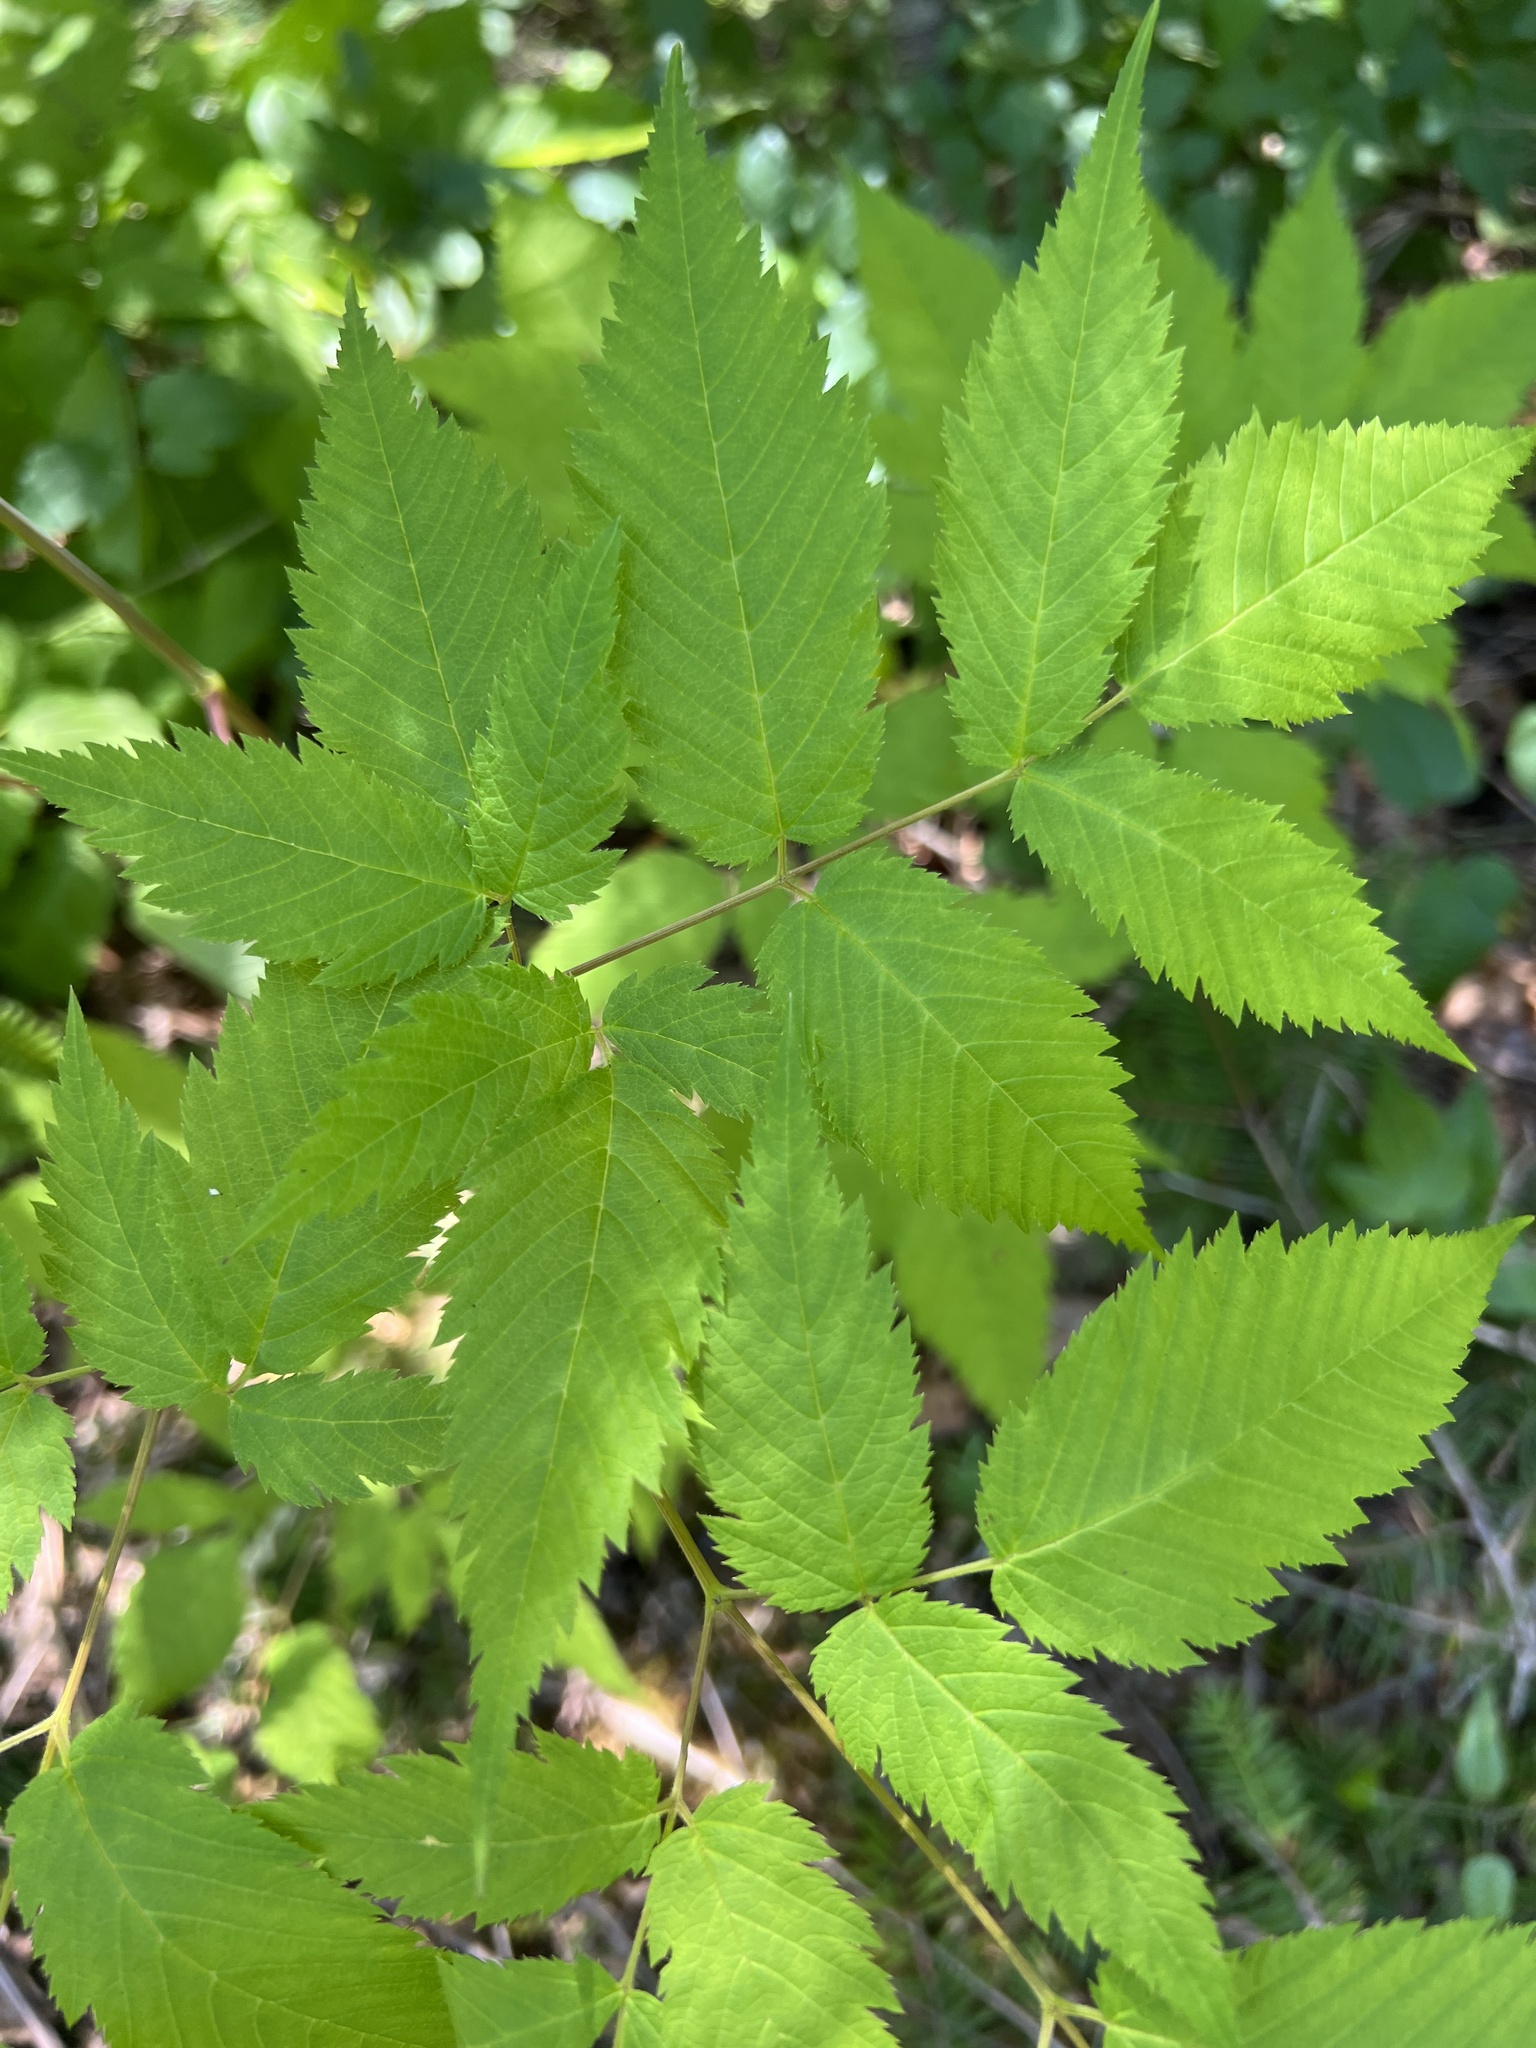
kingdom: Plantae
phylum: Tracheophyta
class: Magnoliopsida
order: Rosales
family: Rosaceae
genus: Aruncus
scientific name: Aruncus dioicus
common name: Buck's-beard
